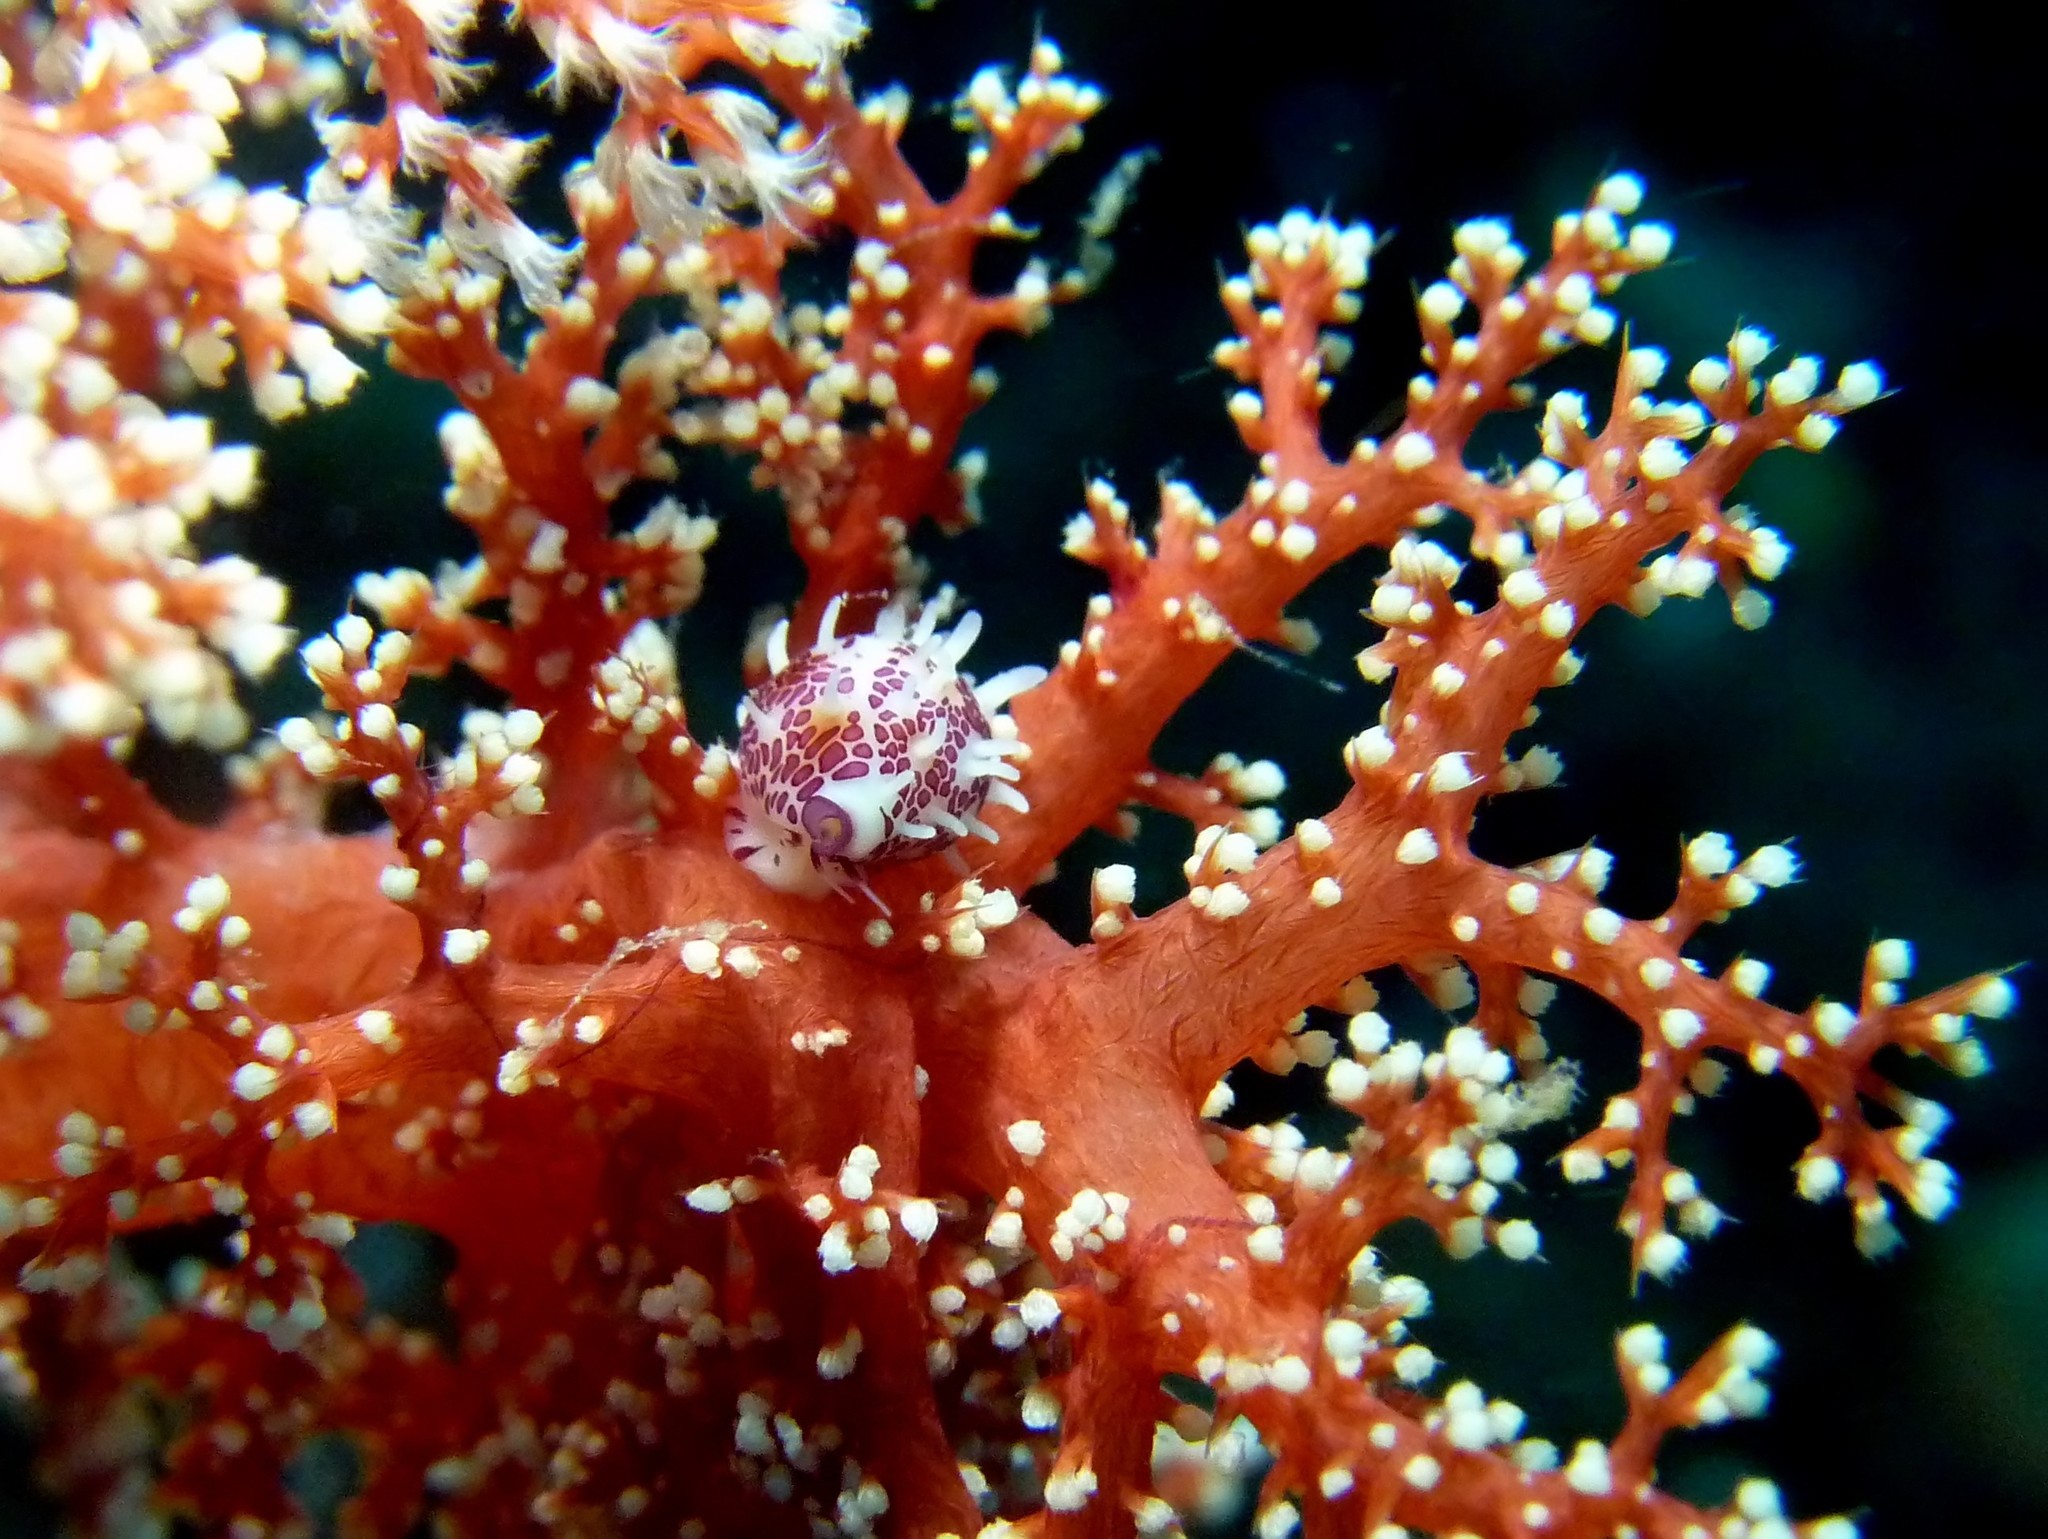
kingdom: Animalia
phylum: Mollusca
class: Gastropoda
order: Littorinimorpha
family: Ovulidae
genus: Diminovula
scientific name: Diminovula aurantiomacula
